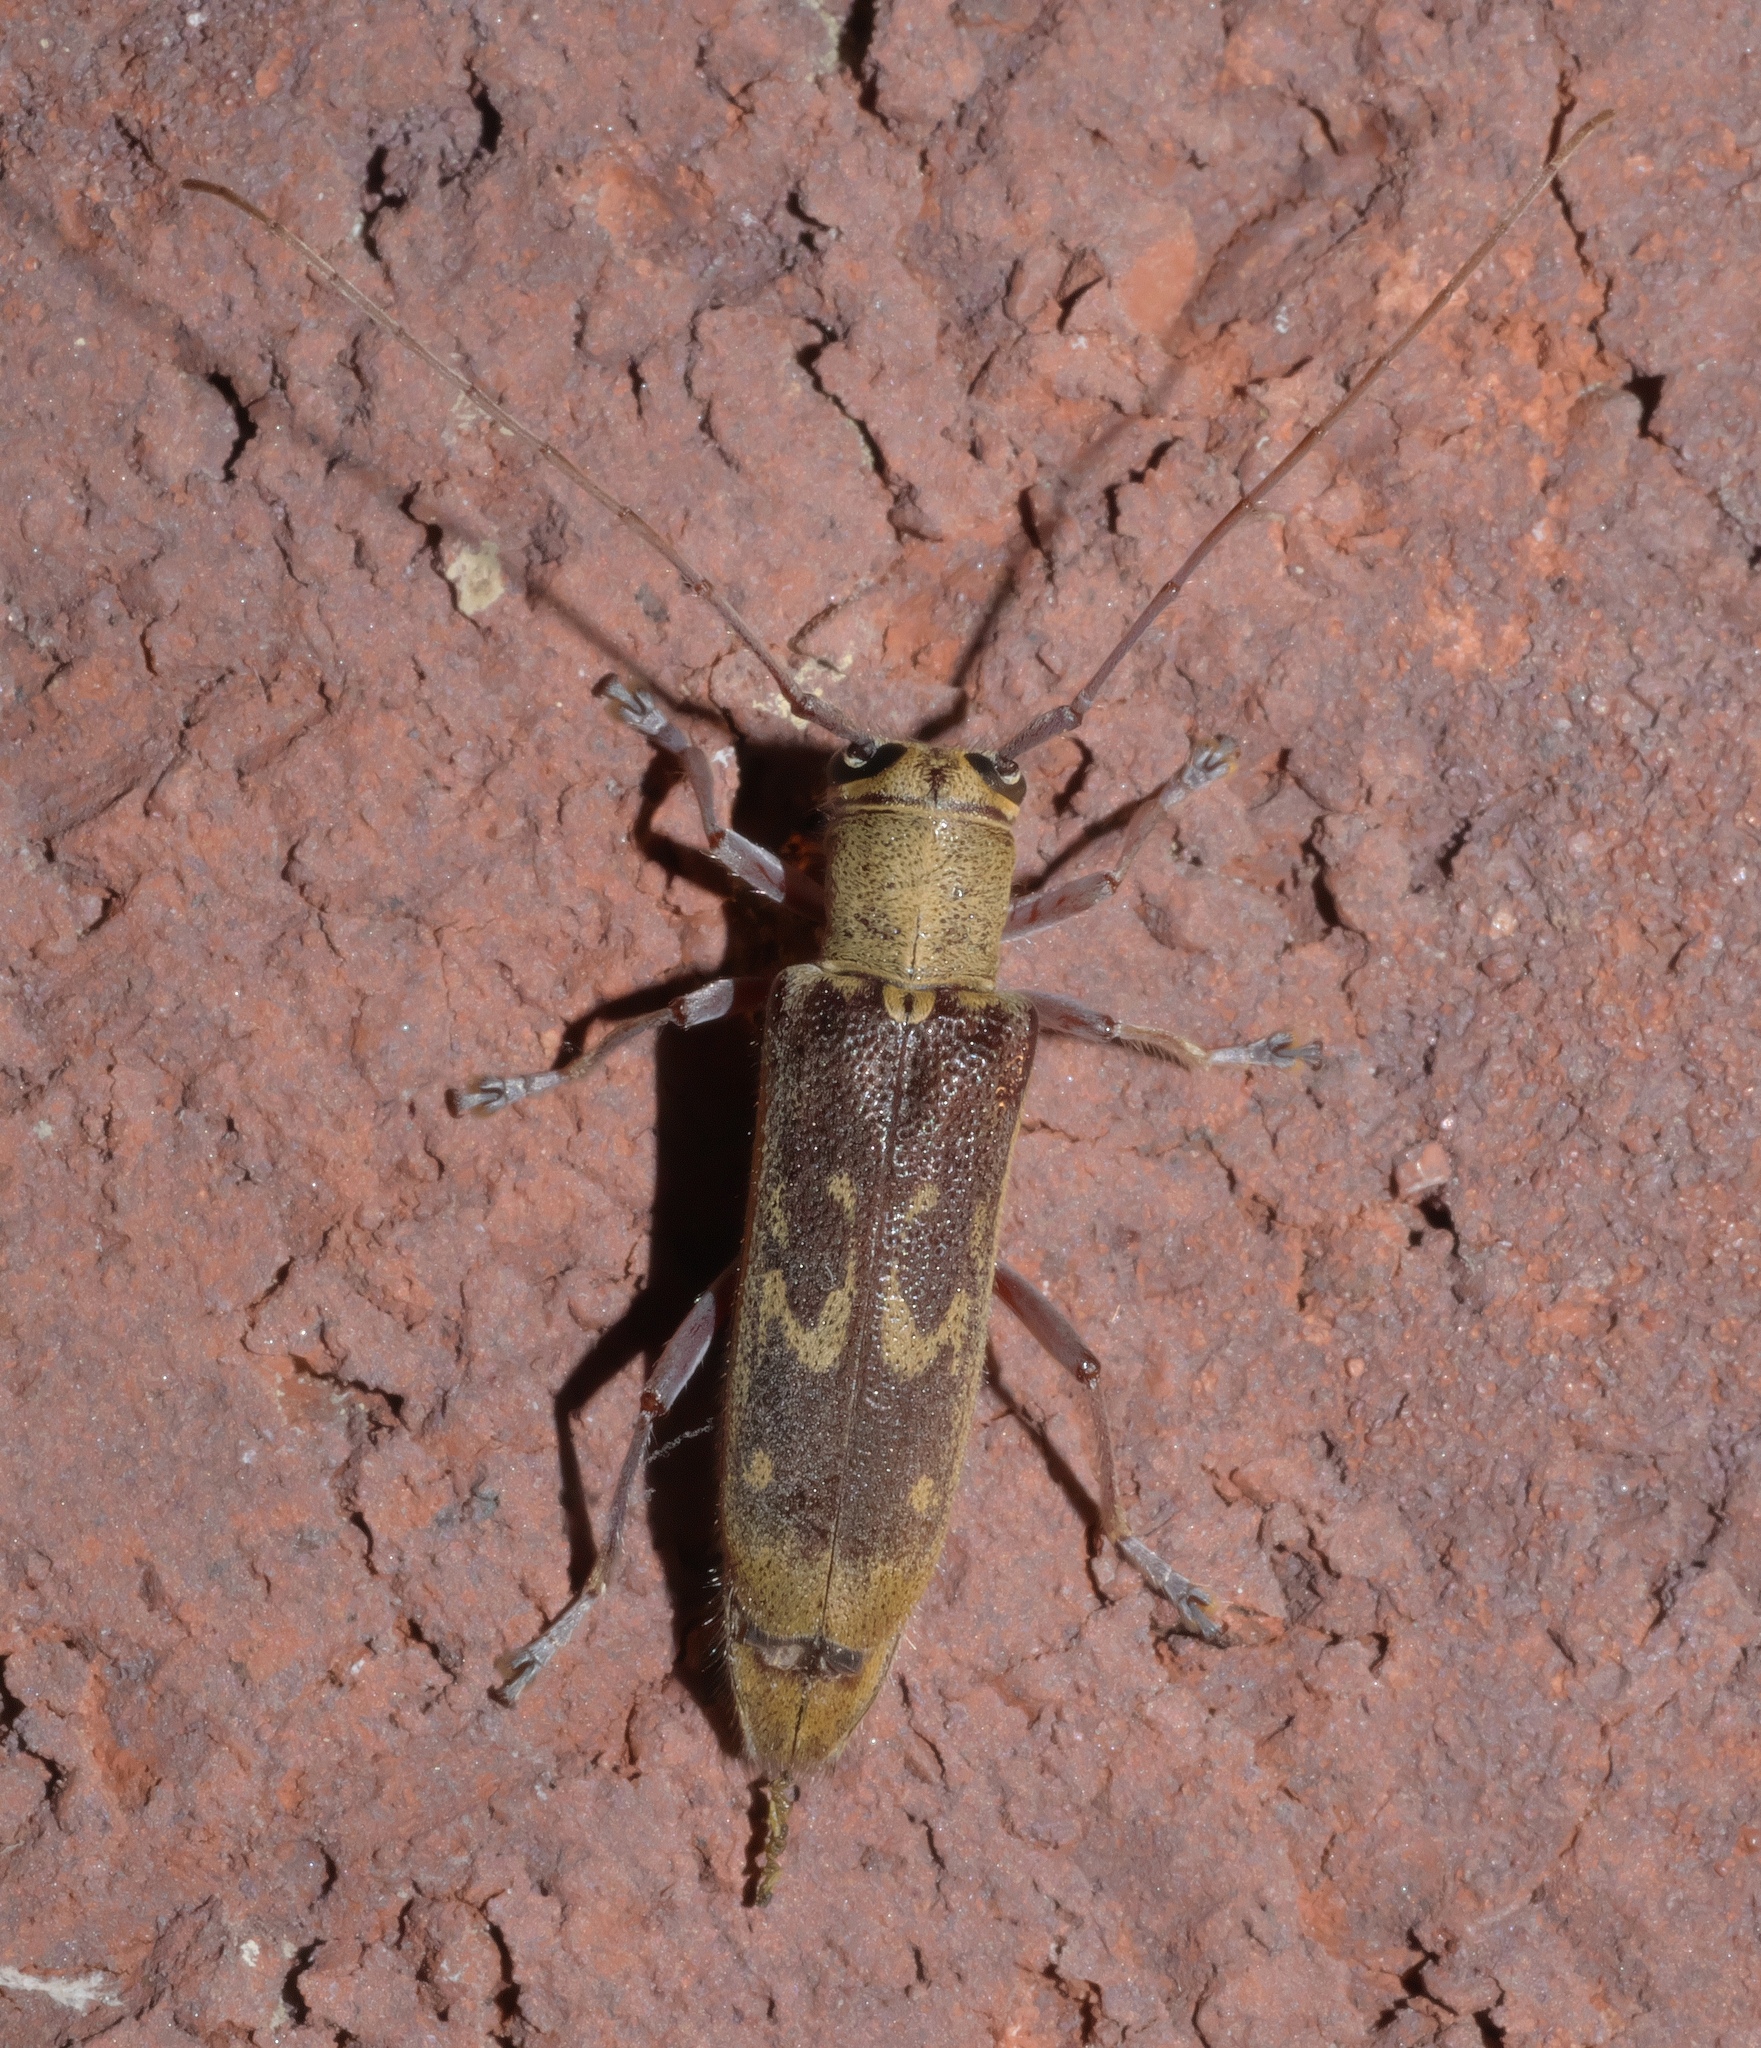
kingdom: Animalia
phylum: Arthropoda
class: Insecta
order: Coleoptera
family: Cerambycidae
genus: Saperda
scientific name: Saperda discoidea
